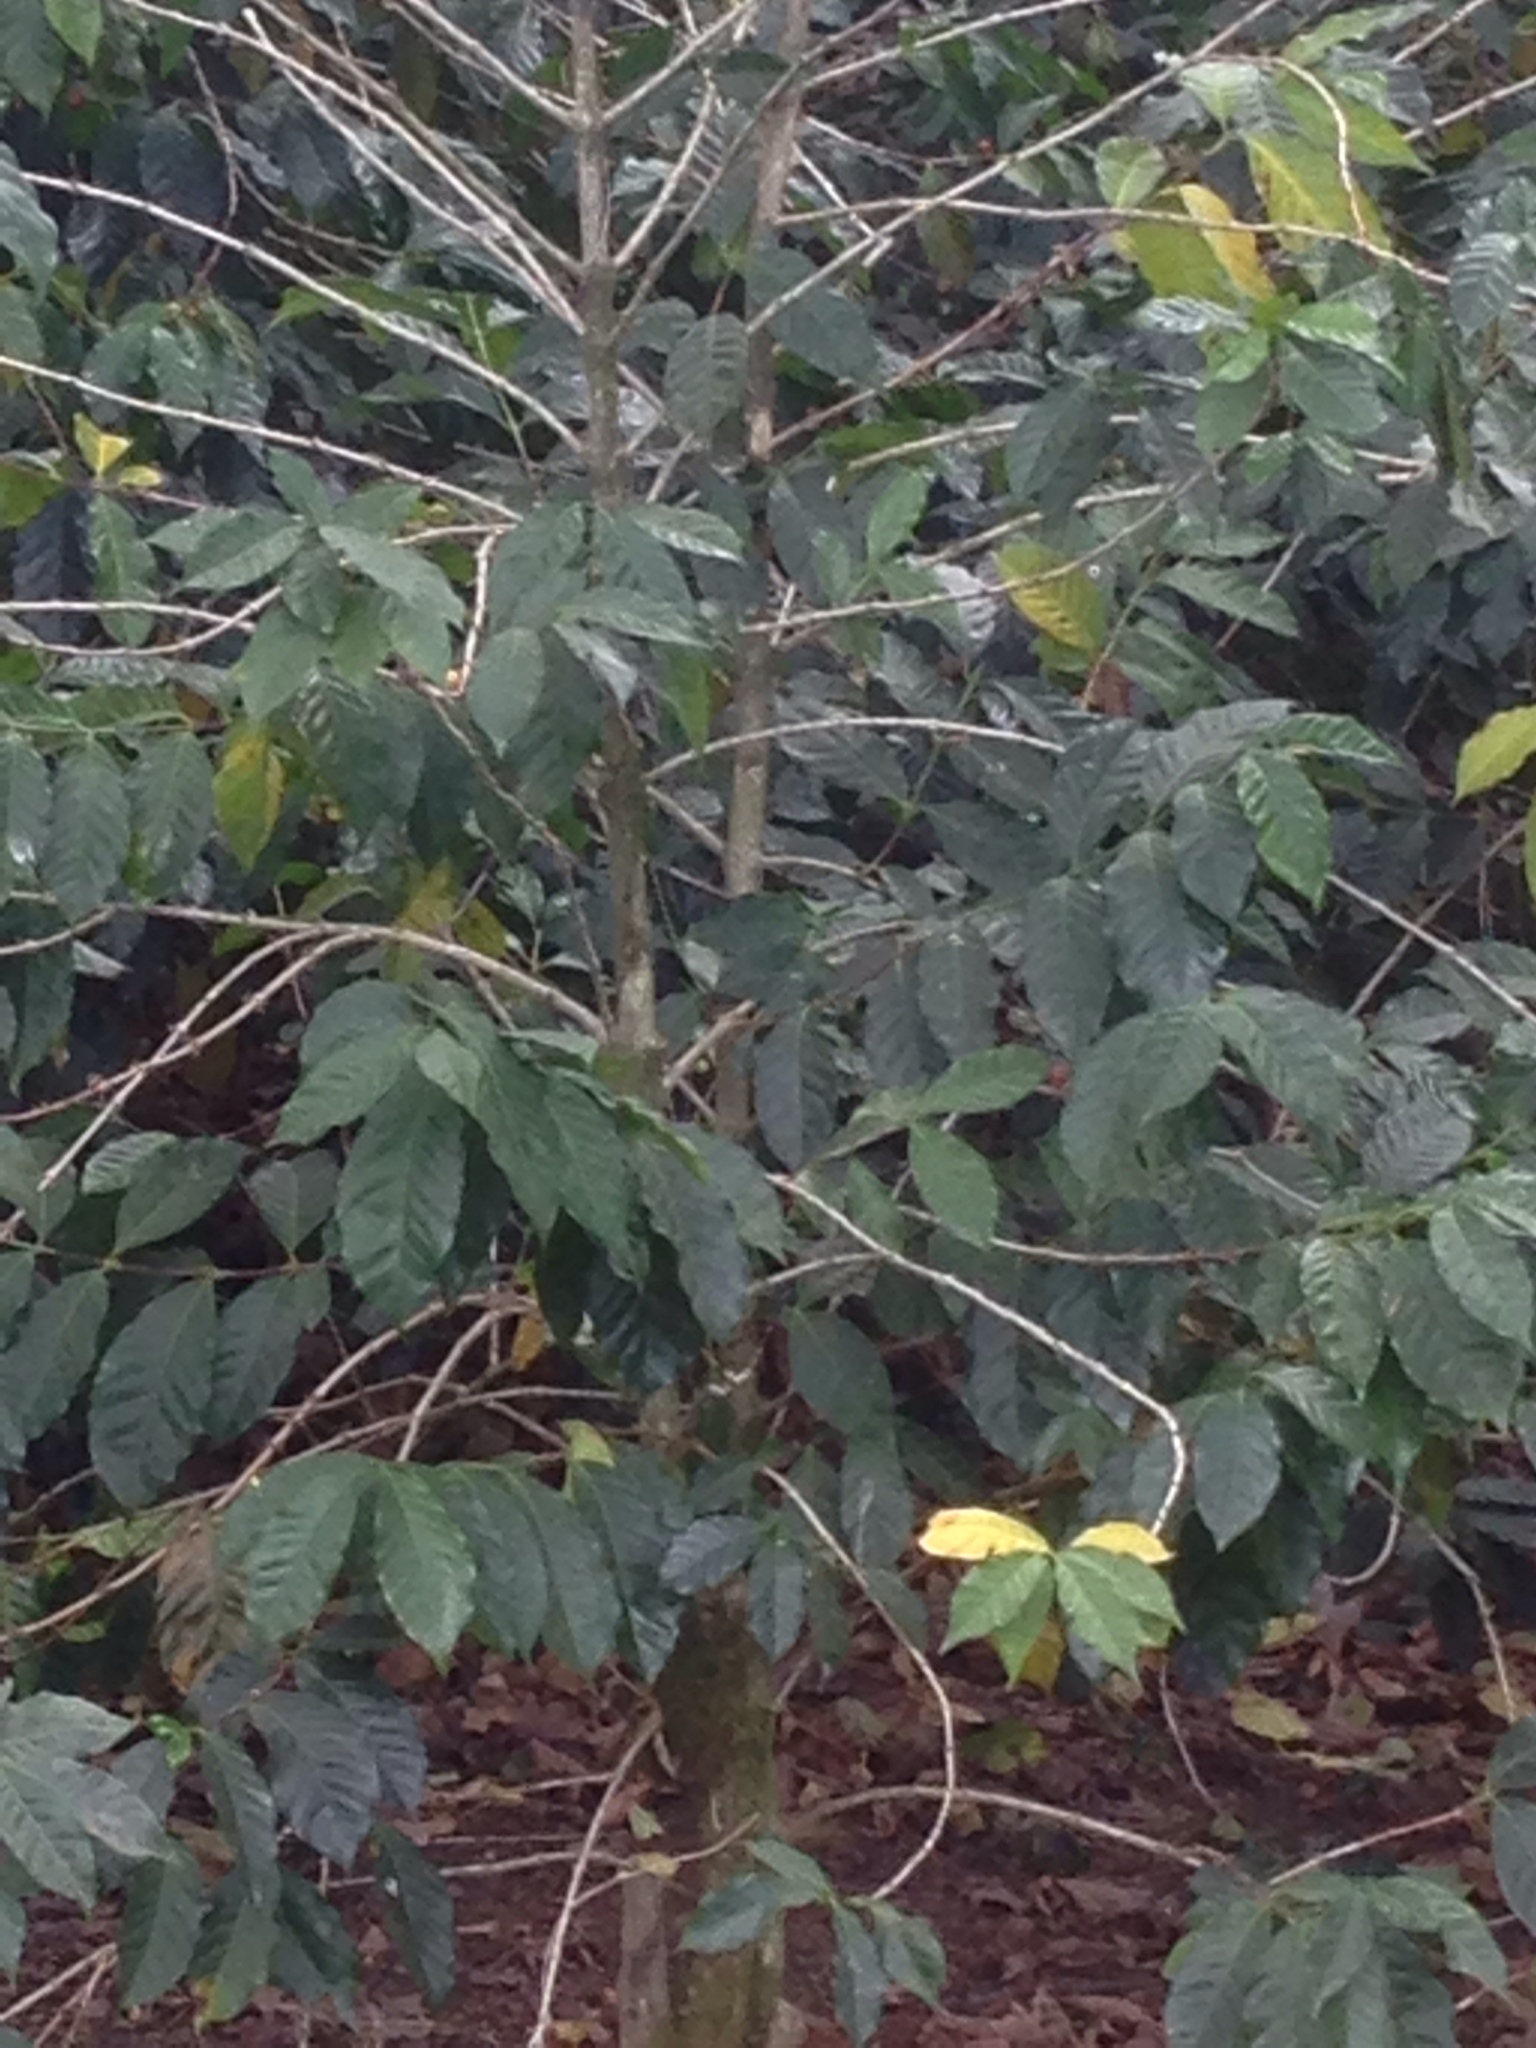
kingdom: Plantae
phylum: Tracheophyta
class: Magnoliopsida
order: Gentianales
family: Rubiaceae
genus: Coffea
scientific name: Coffea arabica
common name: Coffee
